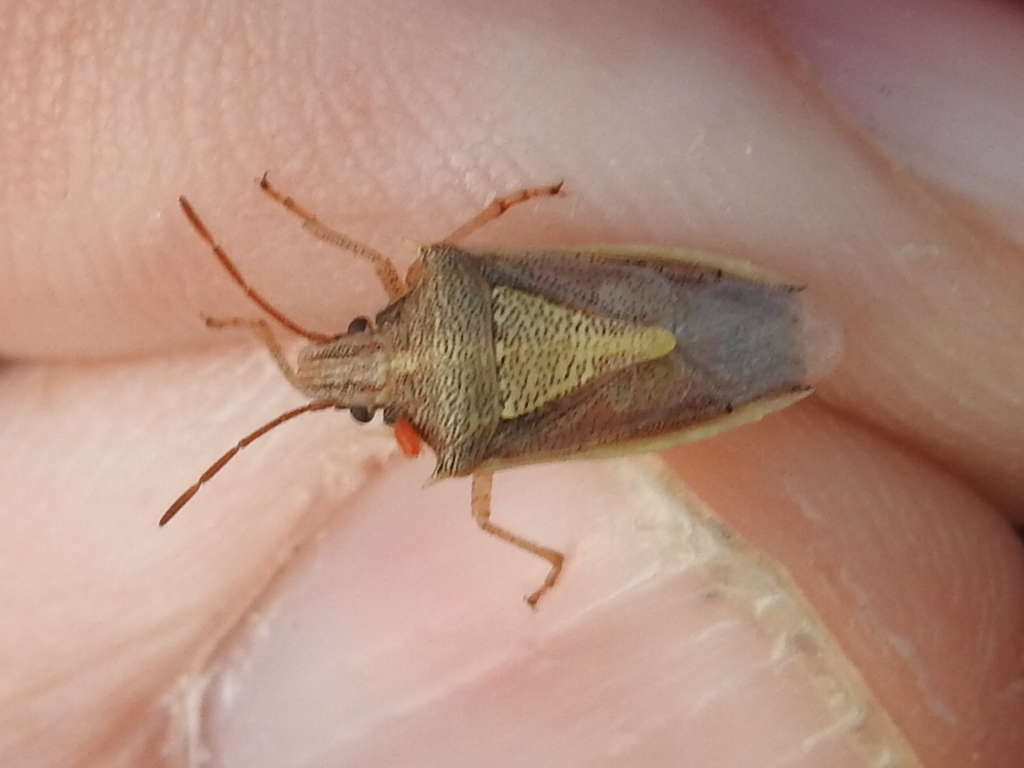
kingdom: Animalia
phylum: Arthropoda
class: Insecta
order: Hemiptera
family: Pentatomidae
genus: Oebalus
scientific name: Oebalus pugnax
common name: Rice stink bug
